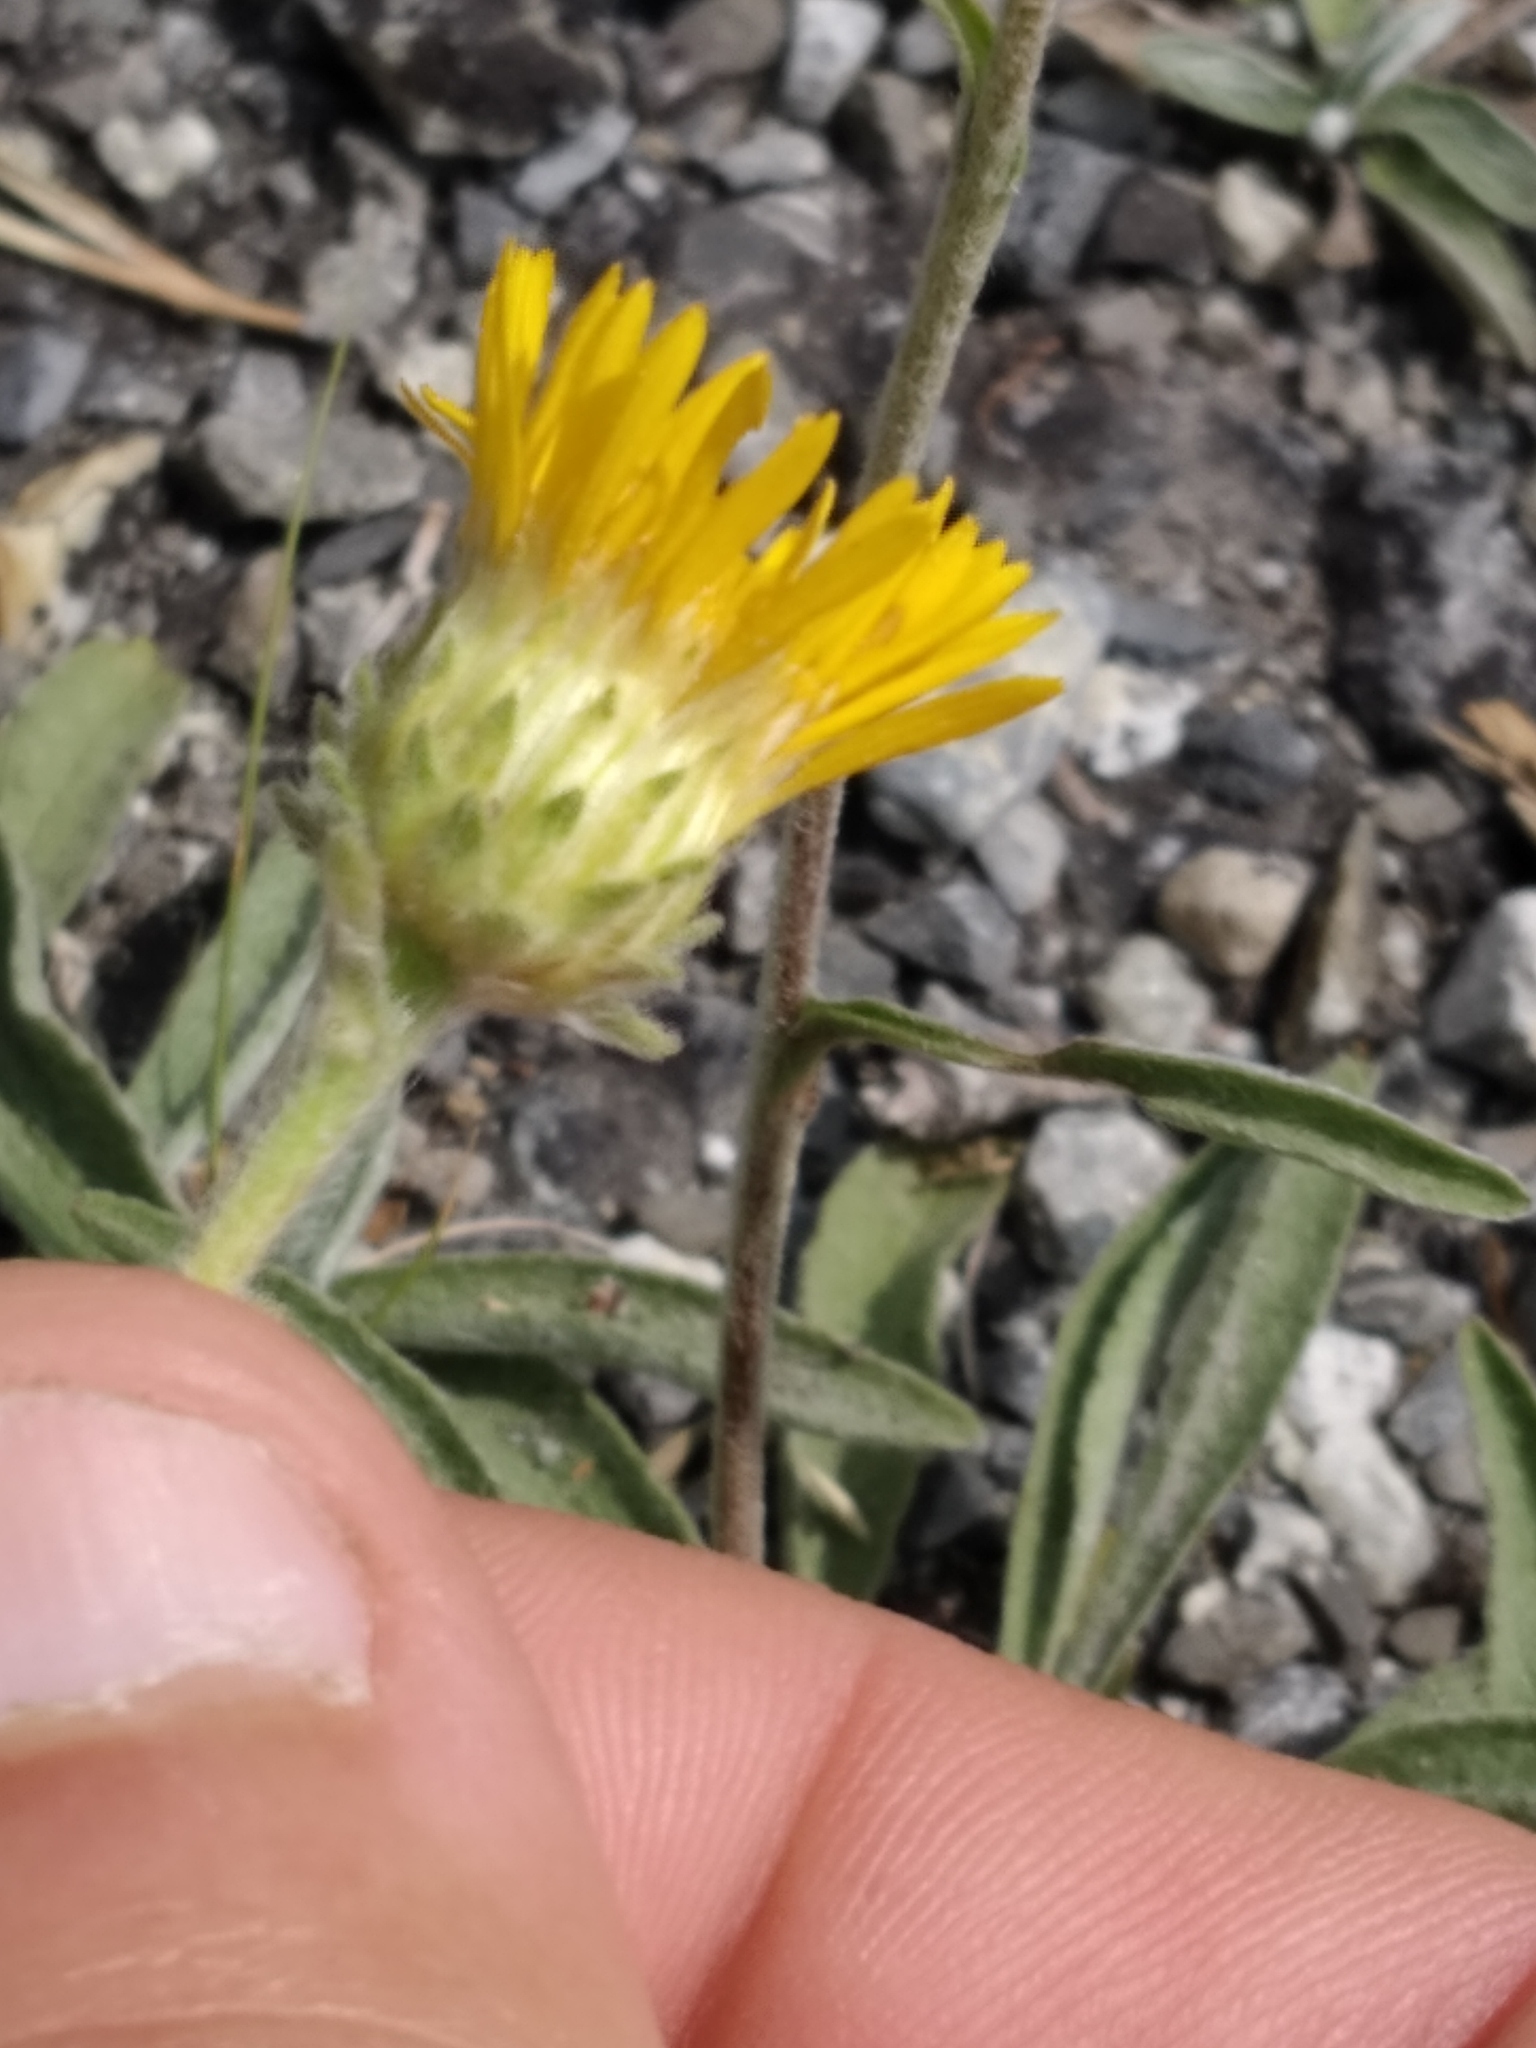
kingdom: Plantae
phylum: Tracheophyta
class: Magnoliopsida
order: Asterales
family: Asteraceae
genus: Pentanema
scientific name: Pentanema montanum
